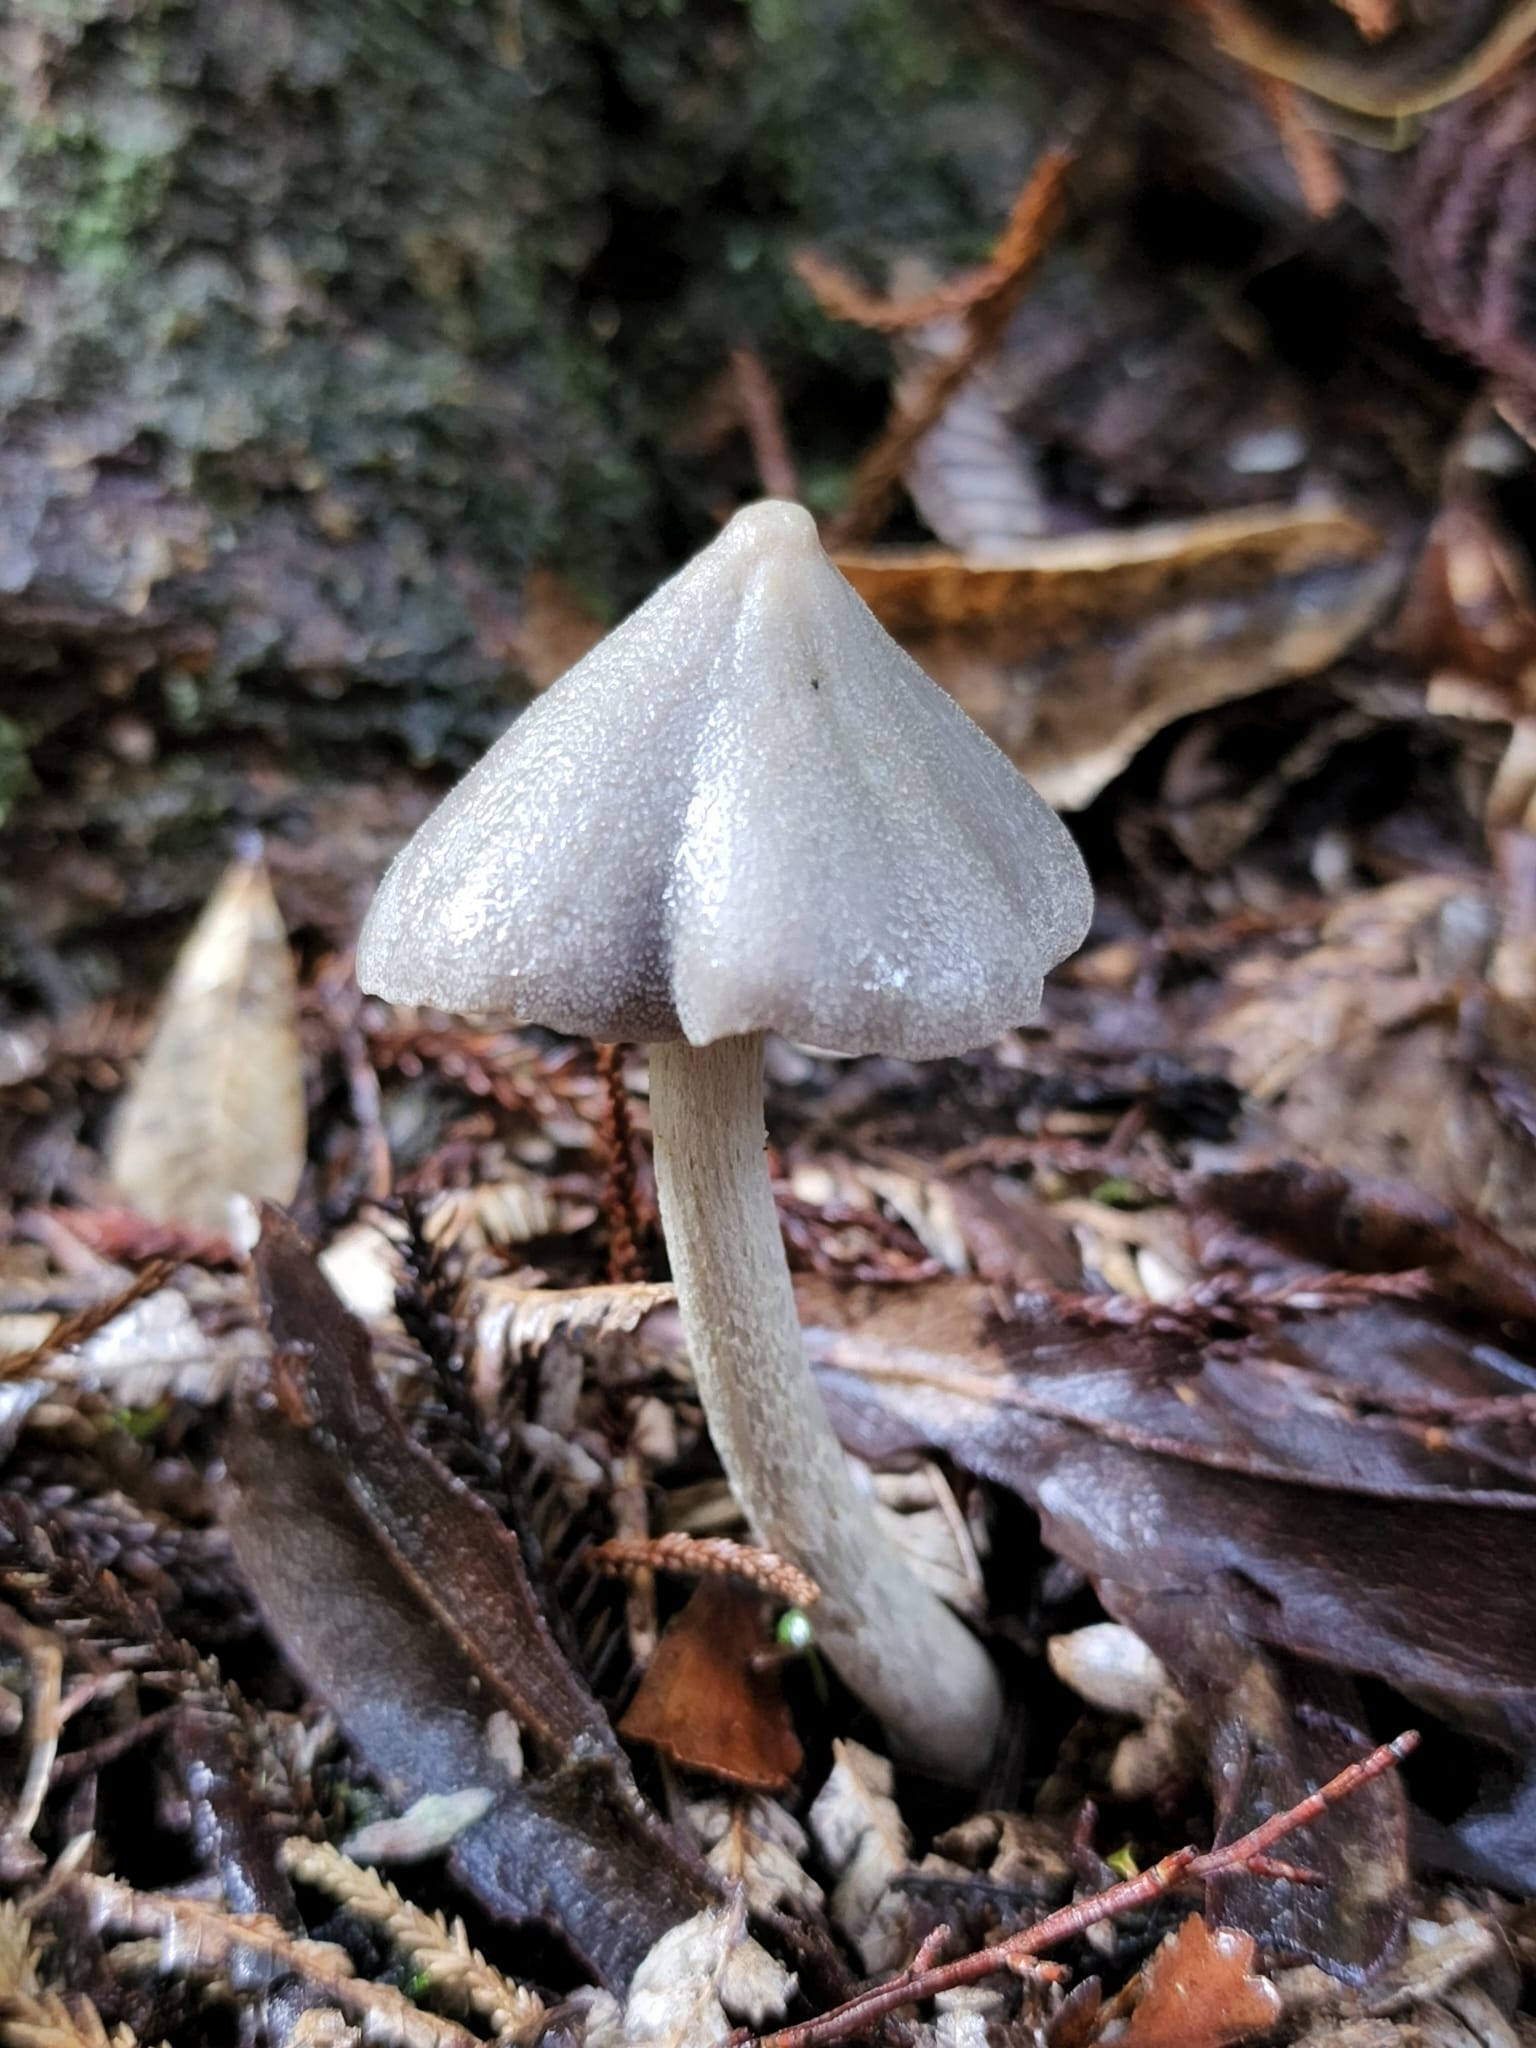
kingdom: Fungi
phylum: Basidiomycota
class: Agaricomycetes
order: Agaricales
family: Entolomataceae
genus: Entoloma
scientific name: Entoloma canoconicum
